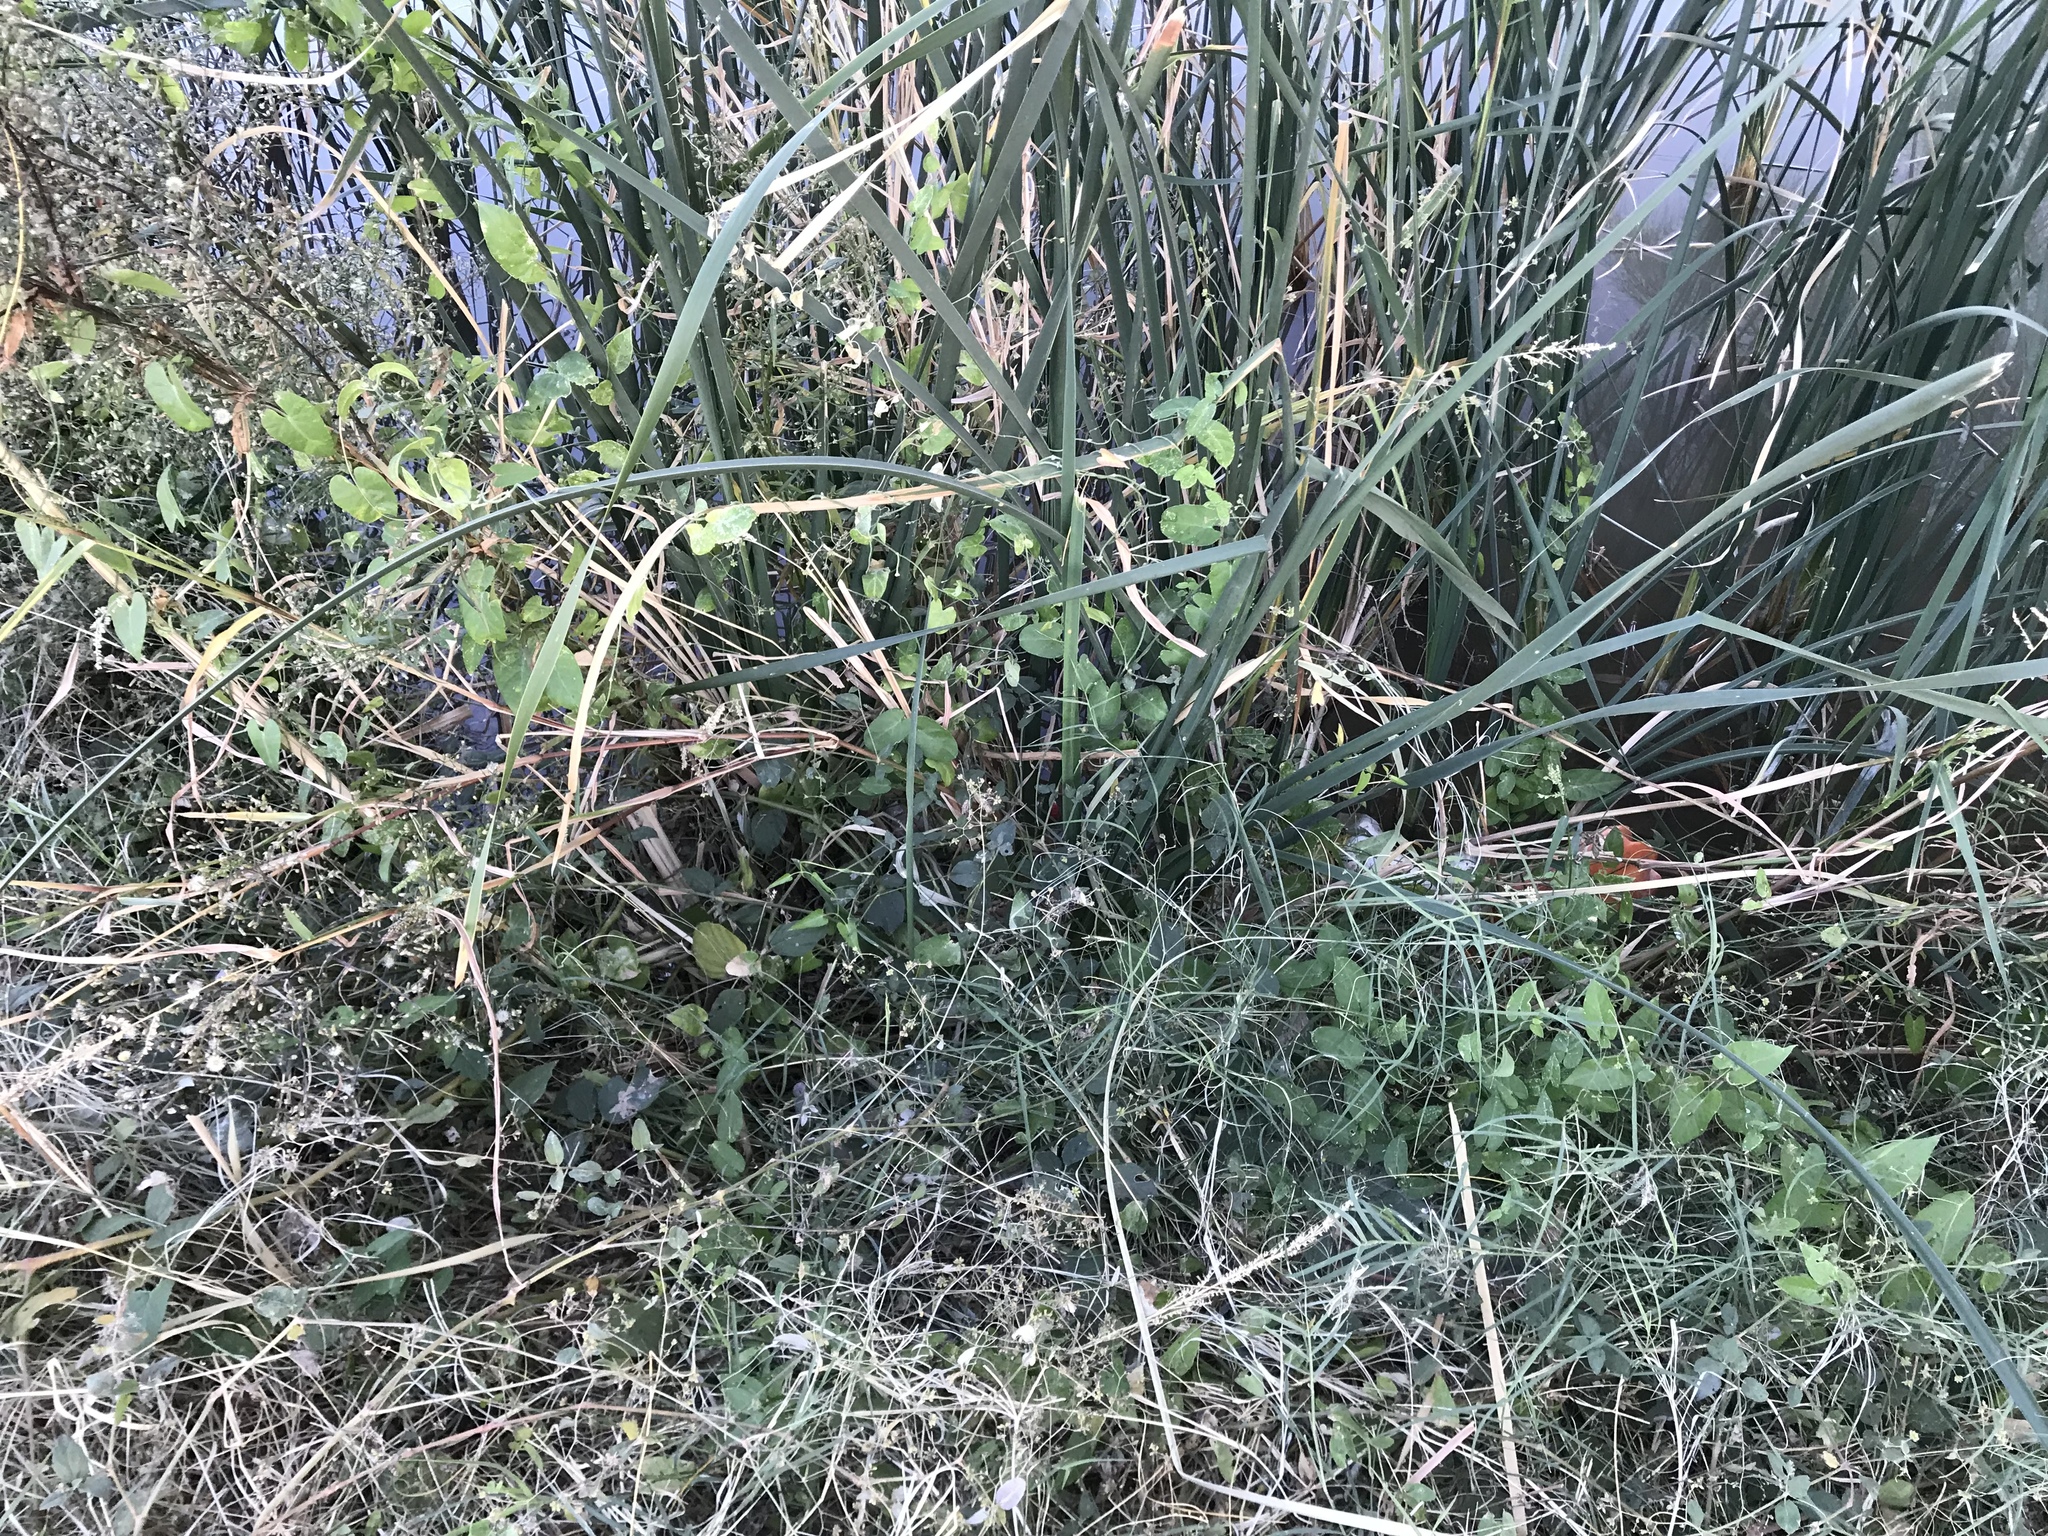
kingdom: Plantae
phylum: Tracheophyta
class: Magnoliopsida
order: Gentianales
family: Apocynaceae
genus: Funastrum
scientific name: Funastrum cynanchoides
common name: Climbing-milkweed
